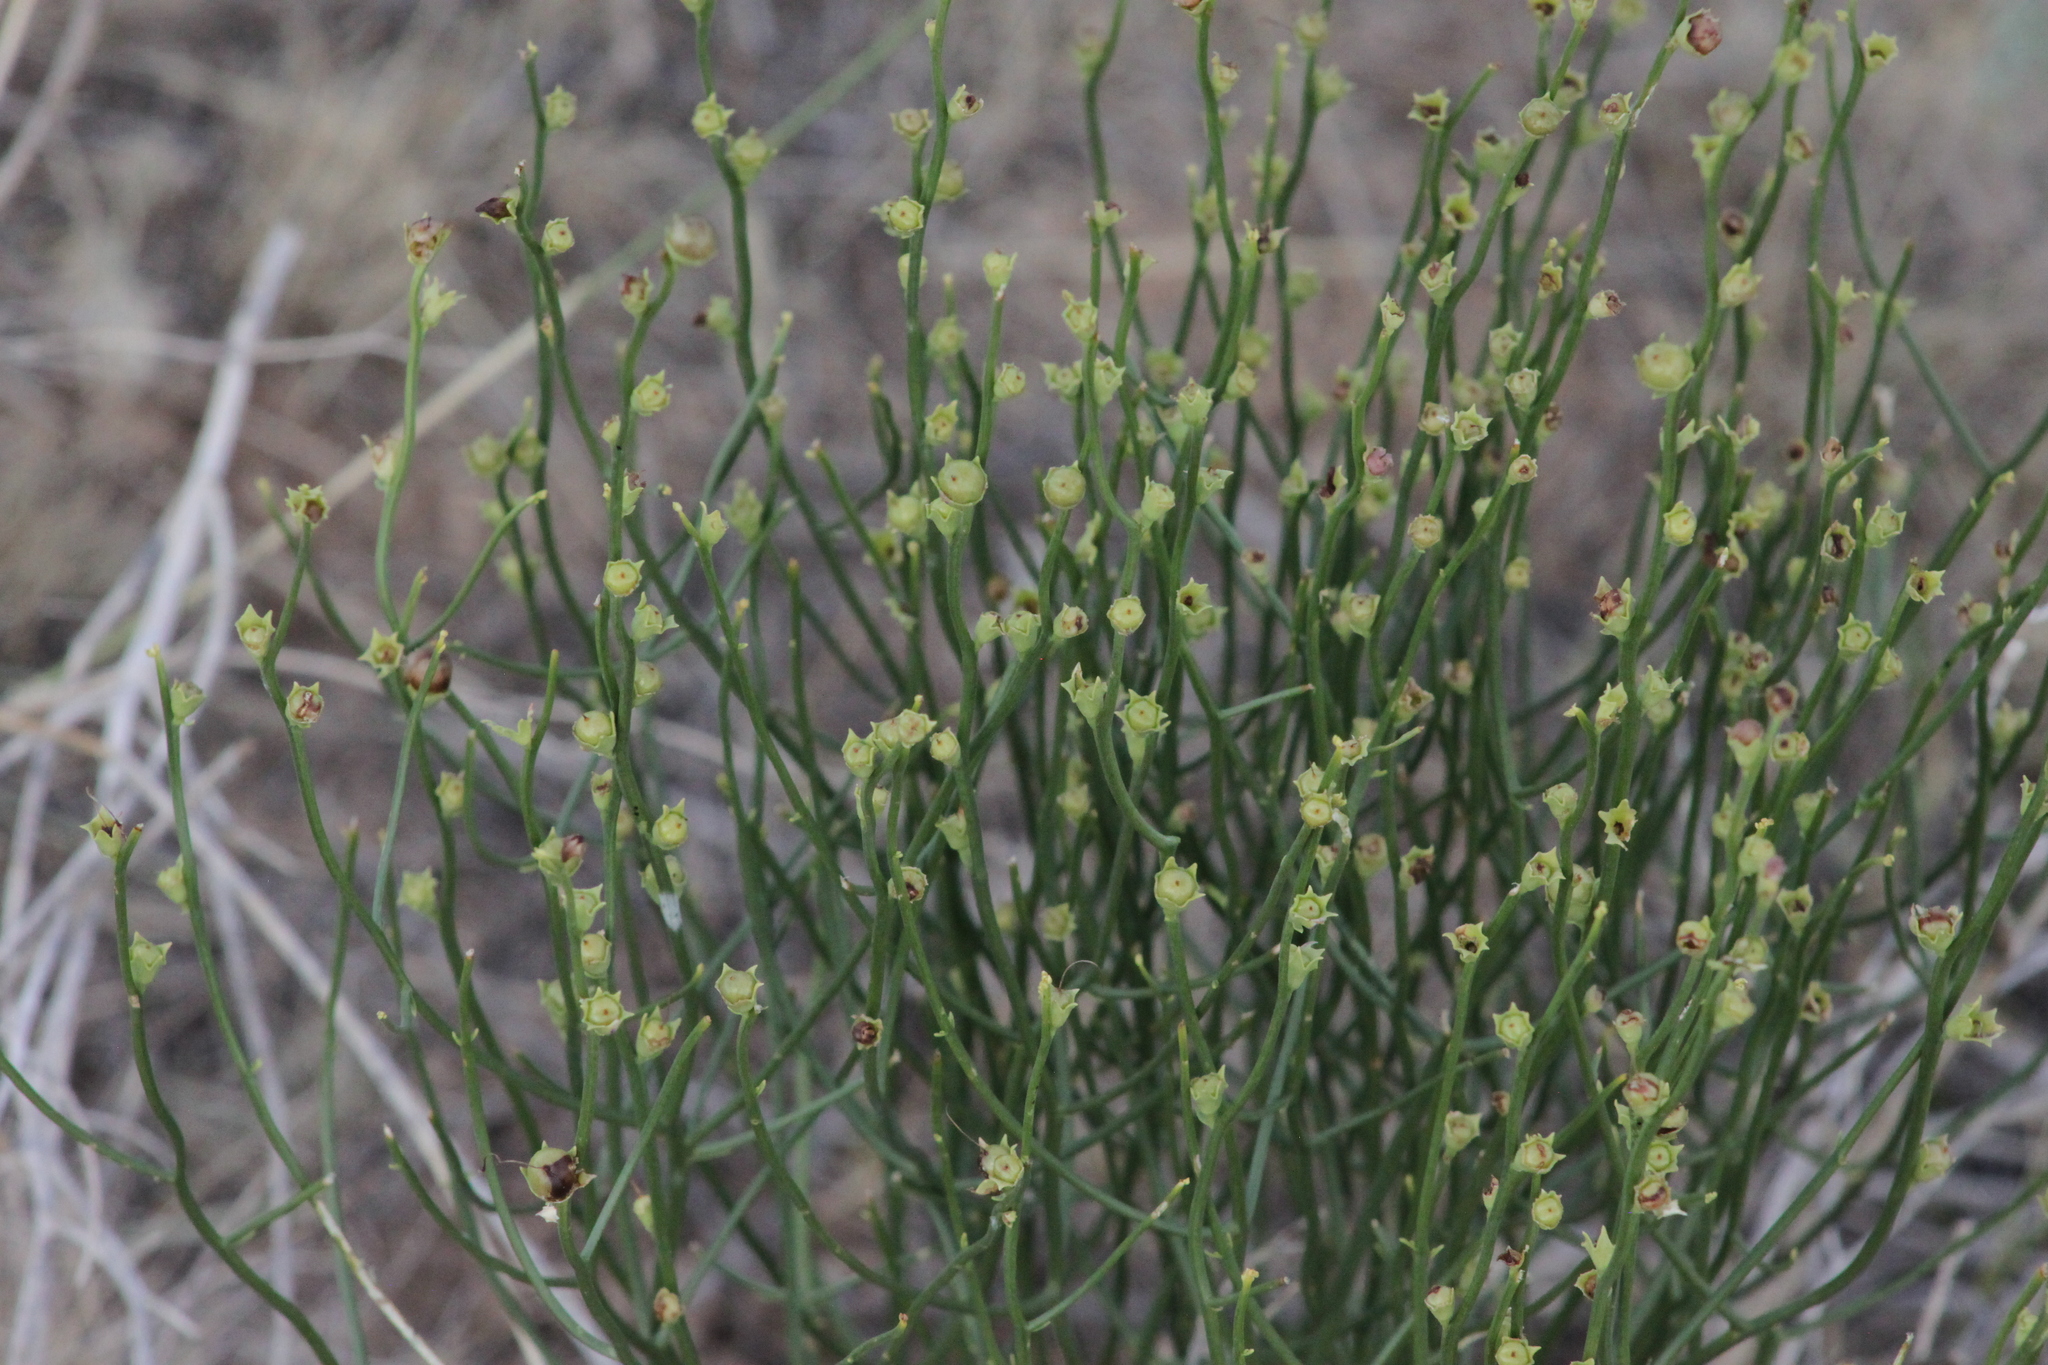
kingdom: Plantae
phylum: Tracheophyta
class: Magnoliopsida
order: Lamiales
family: Mazaceae
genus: Dodartia
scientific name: Dodartia orientalis
